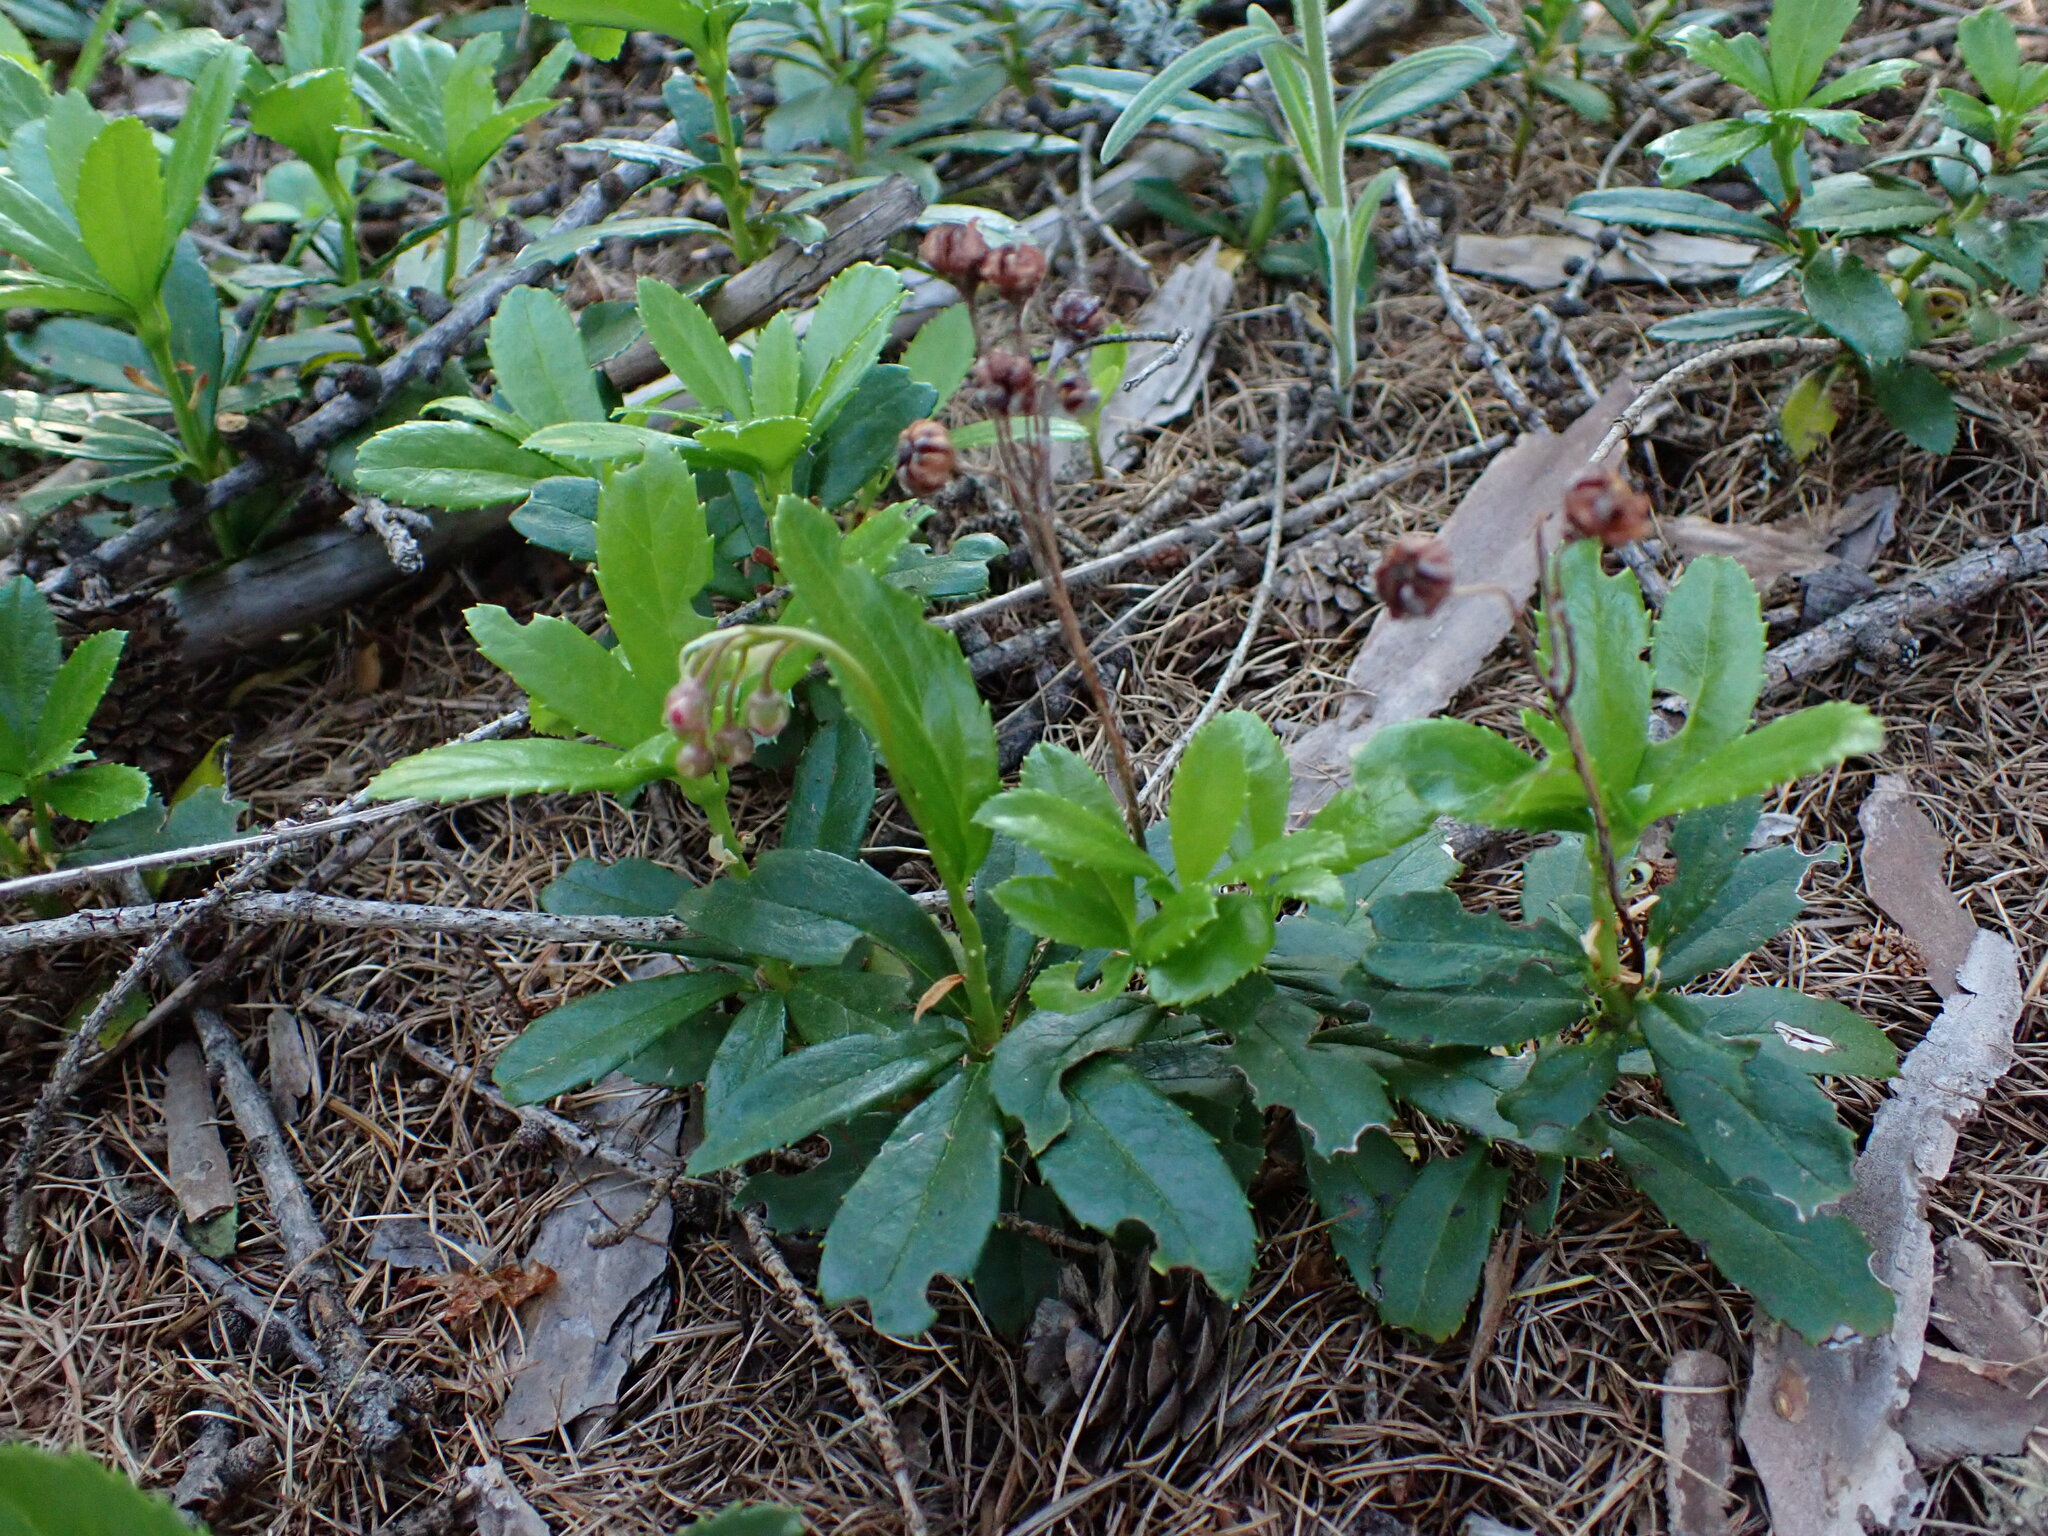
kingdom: Plantae
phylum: Tracheophyta
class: Magnoliopsida
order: Ericales
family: Ericaceae
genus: Chimaphila
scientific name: Chimaphila umbellata
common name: Pipsissewa
